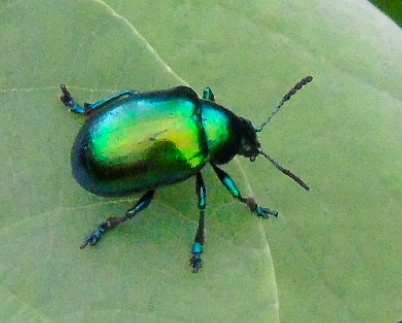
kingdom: Animalia
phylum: Arthropoda
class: Insecta
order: Coleoptera
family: Chrysomelidae
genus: Eumolpus
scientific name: Eumolpus robustus
